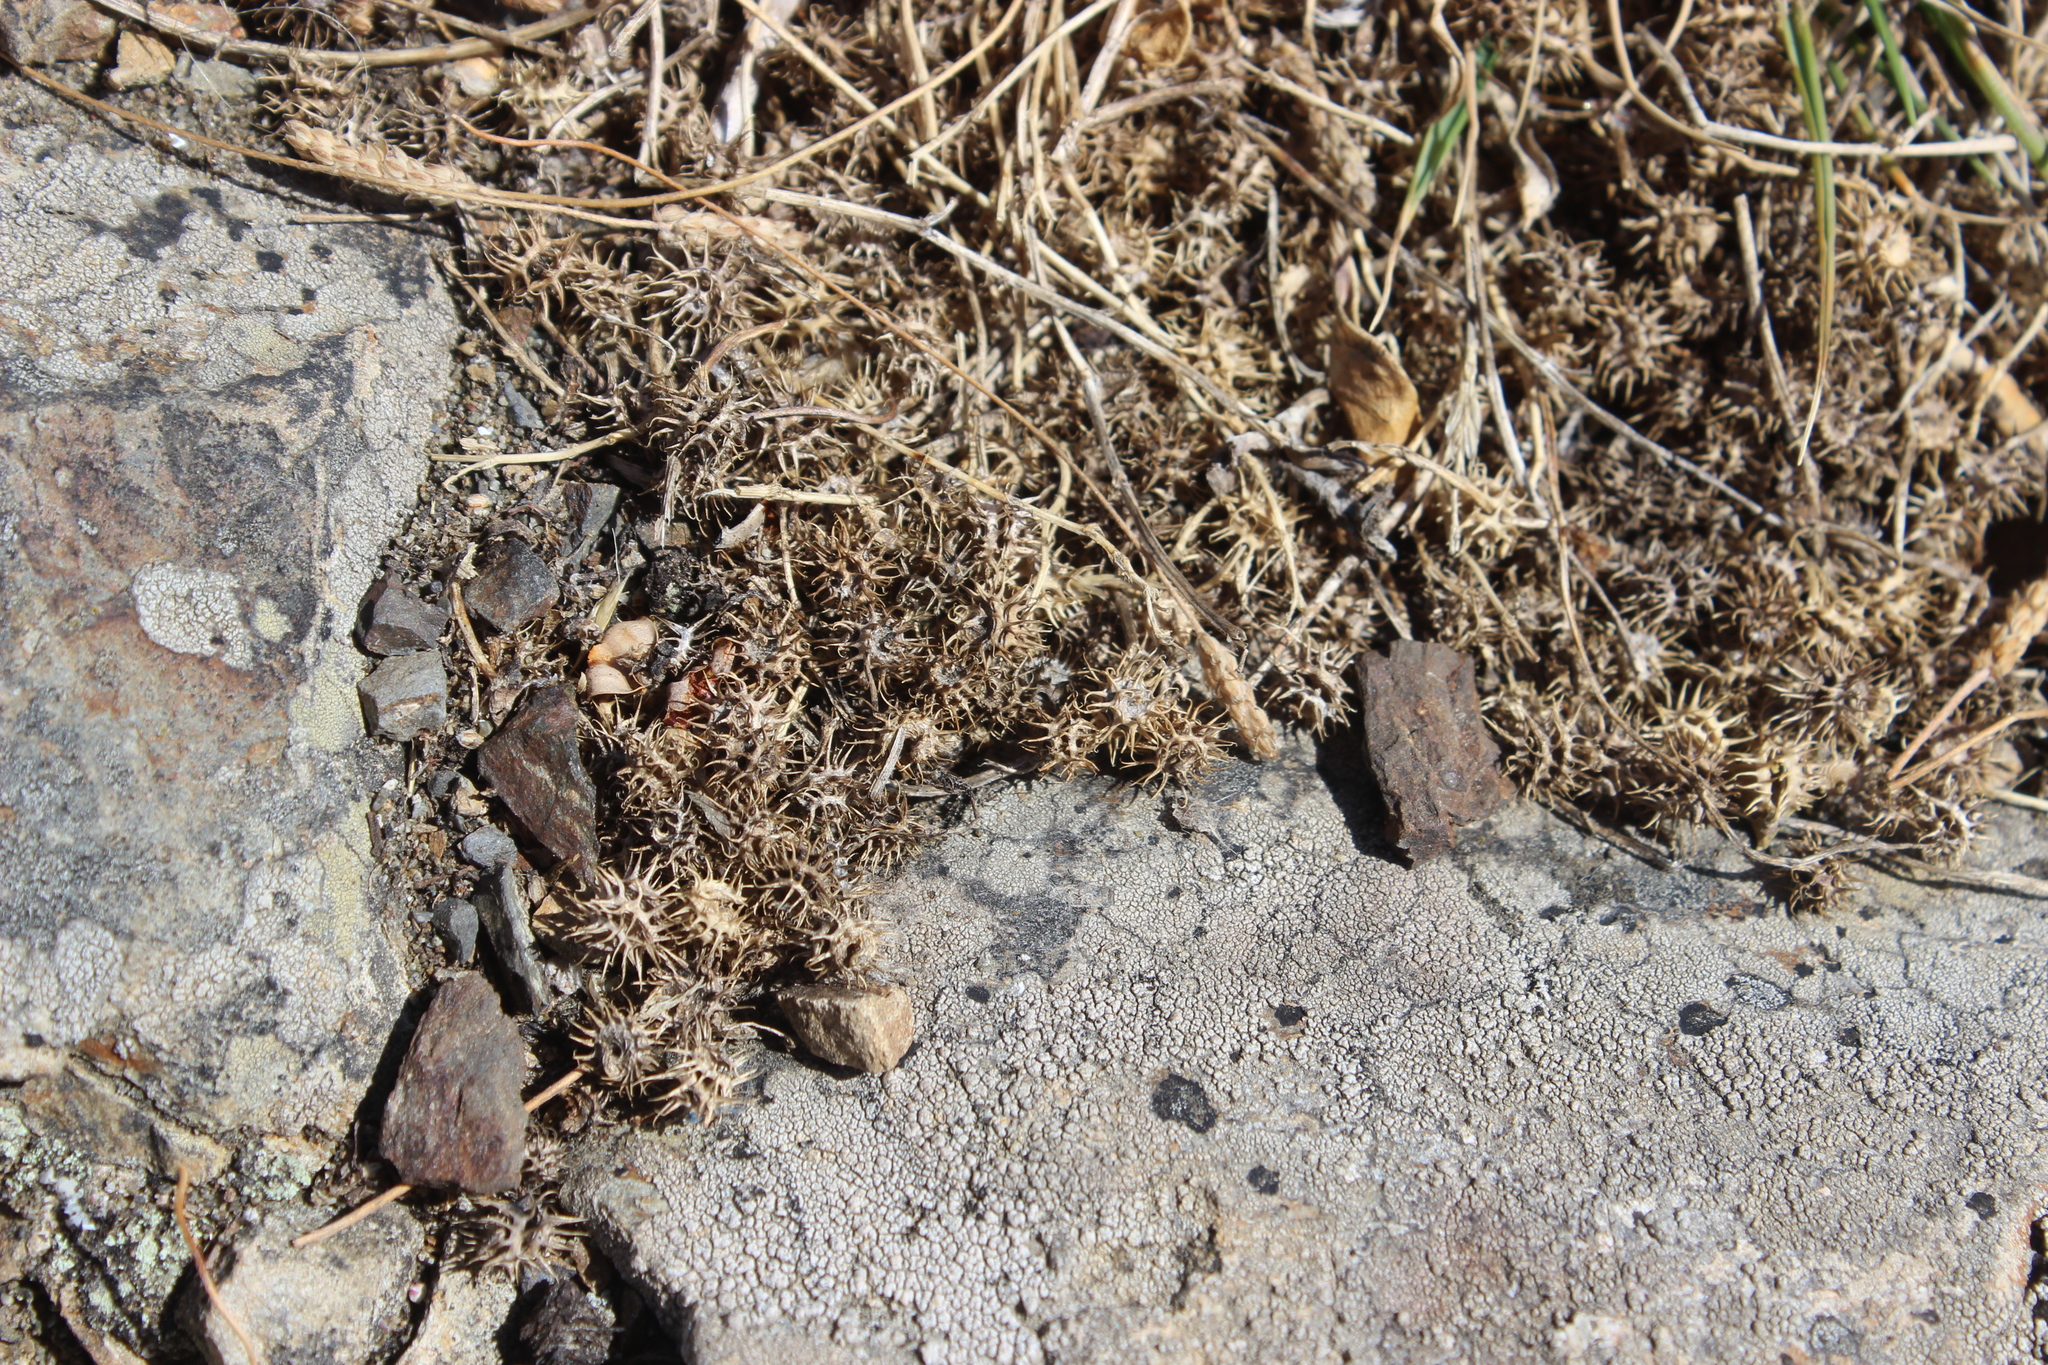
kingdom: Plantae
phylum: Tracheophyta
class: Magnoliopsida
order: Fabales
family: Fabaceae
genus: Medicago
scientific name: Medicago polymorpha
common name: Burclover
